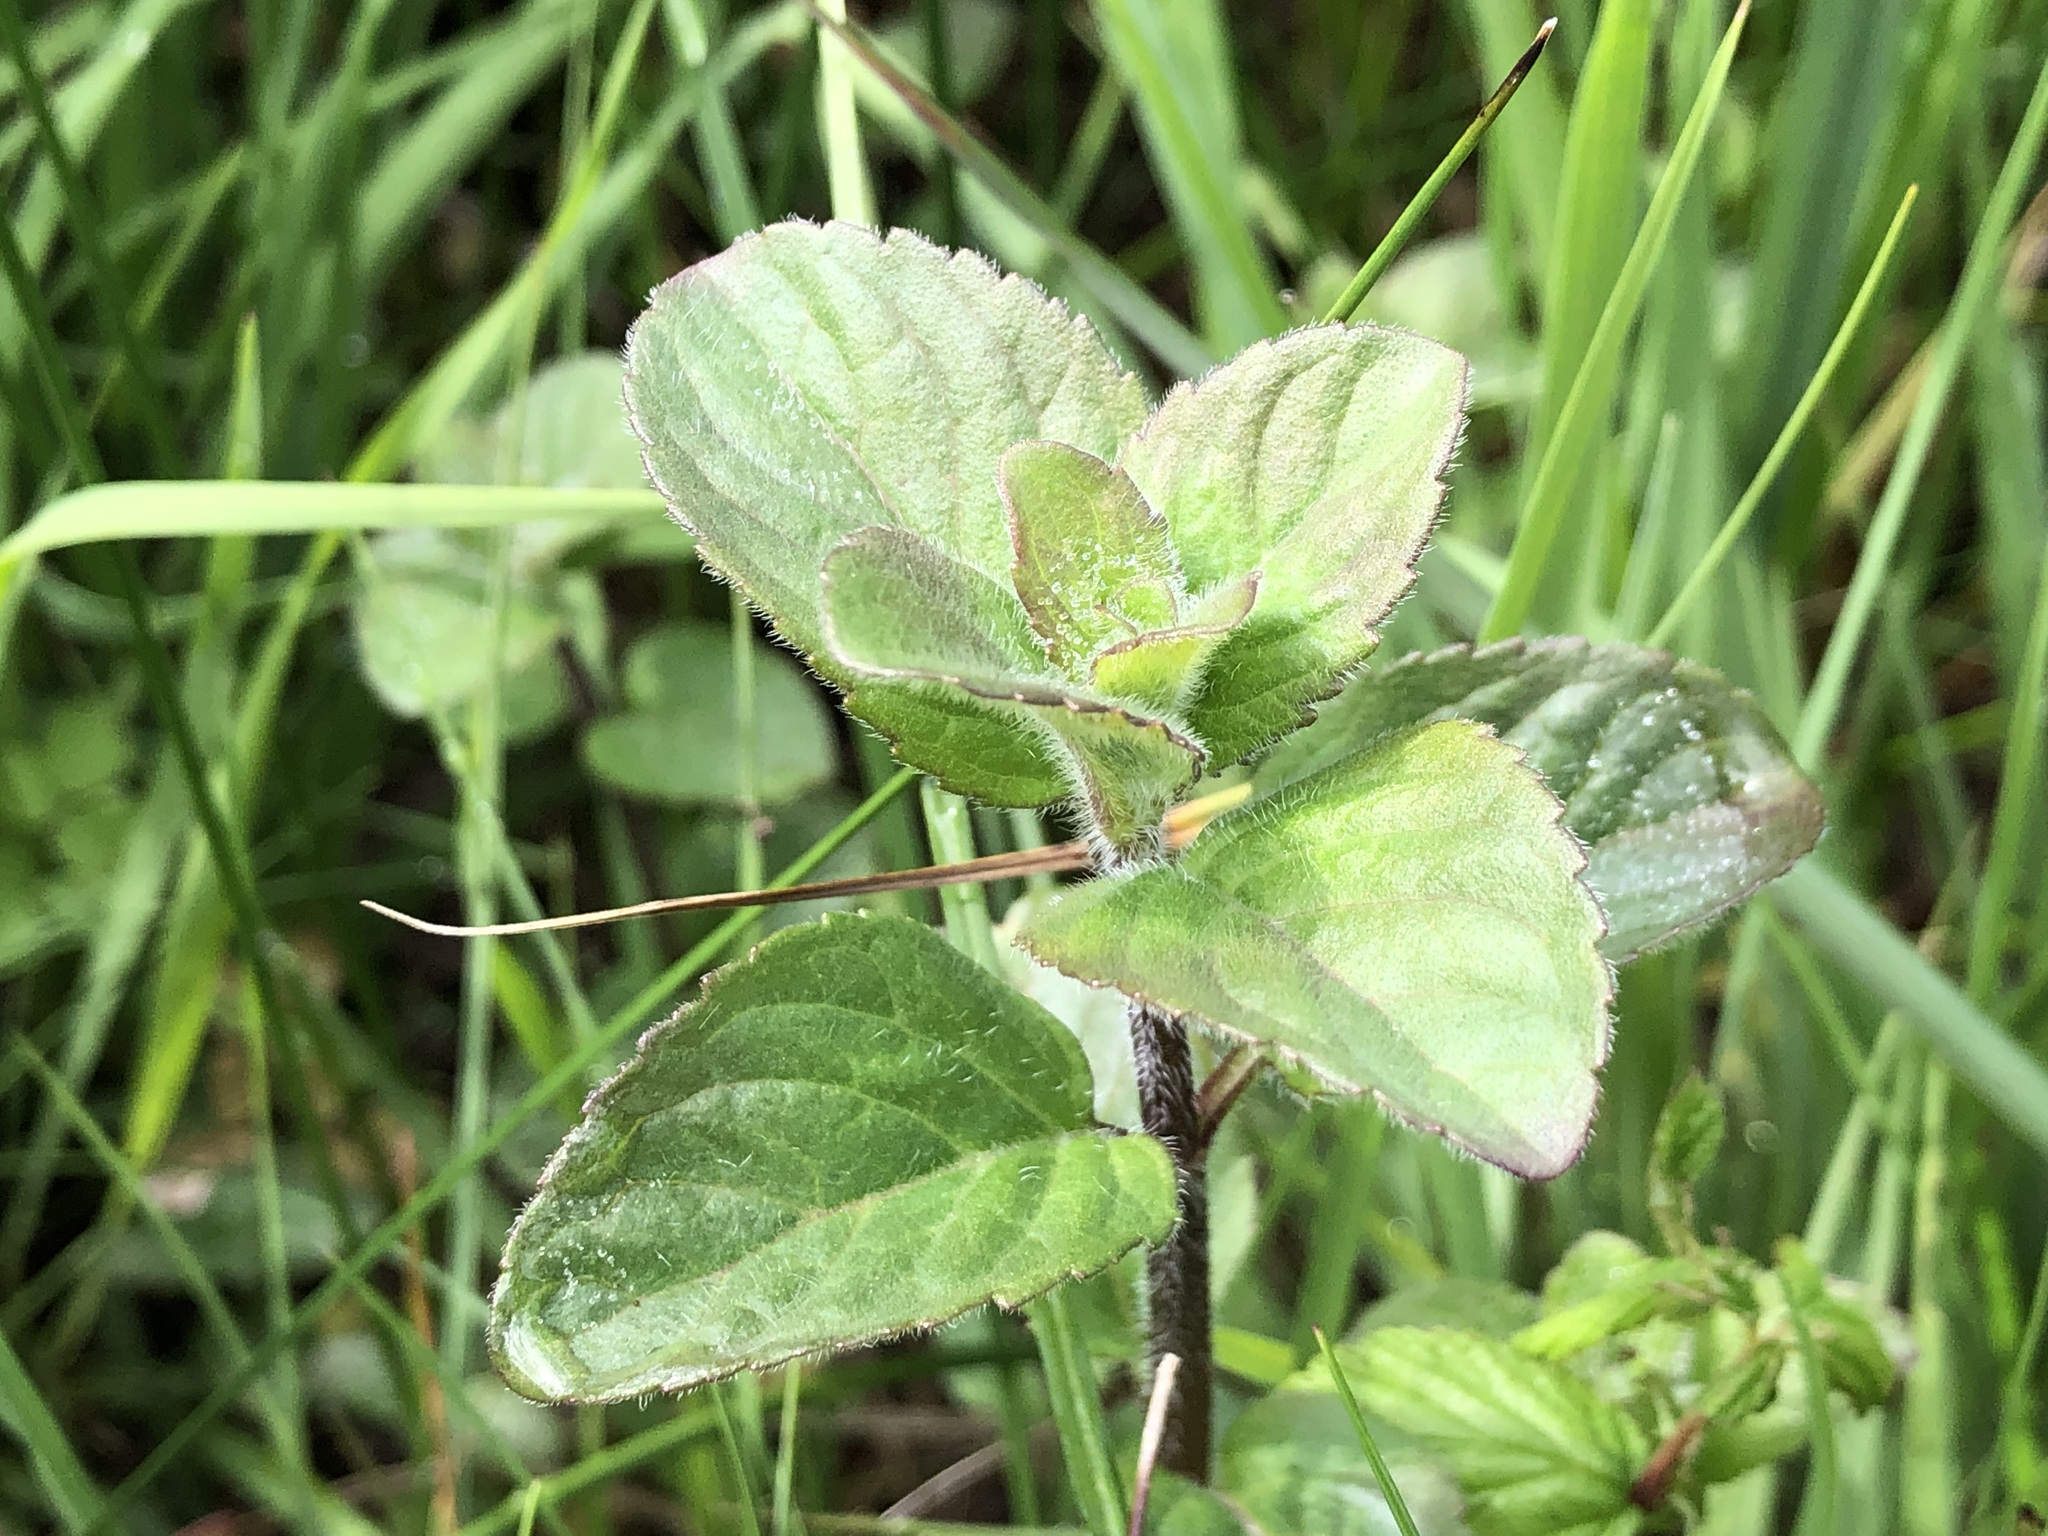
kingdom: Plantae
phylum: Tracheophyta
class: Magnoliopsida
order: Lamiales
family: Lamiaceae
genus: Mentha
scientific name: Mentha aquatica
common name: Water mint
